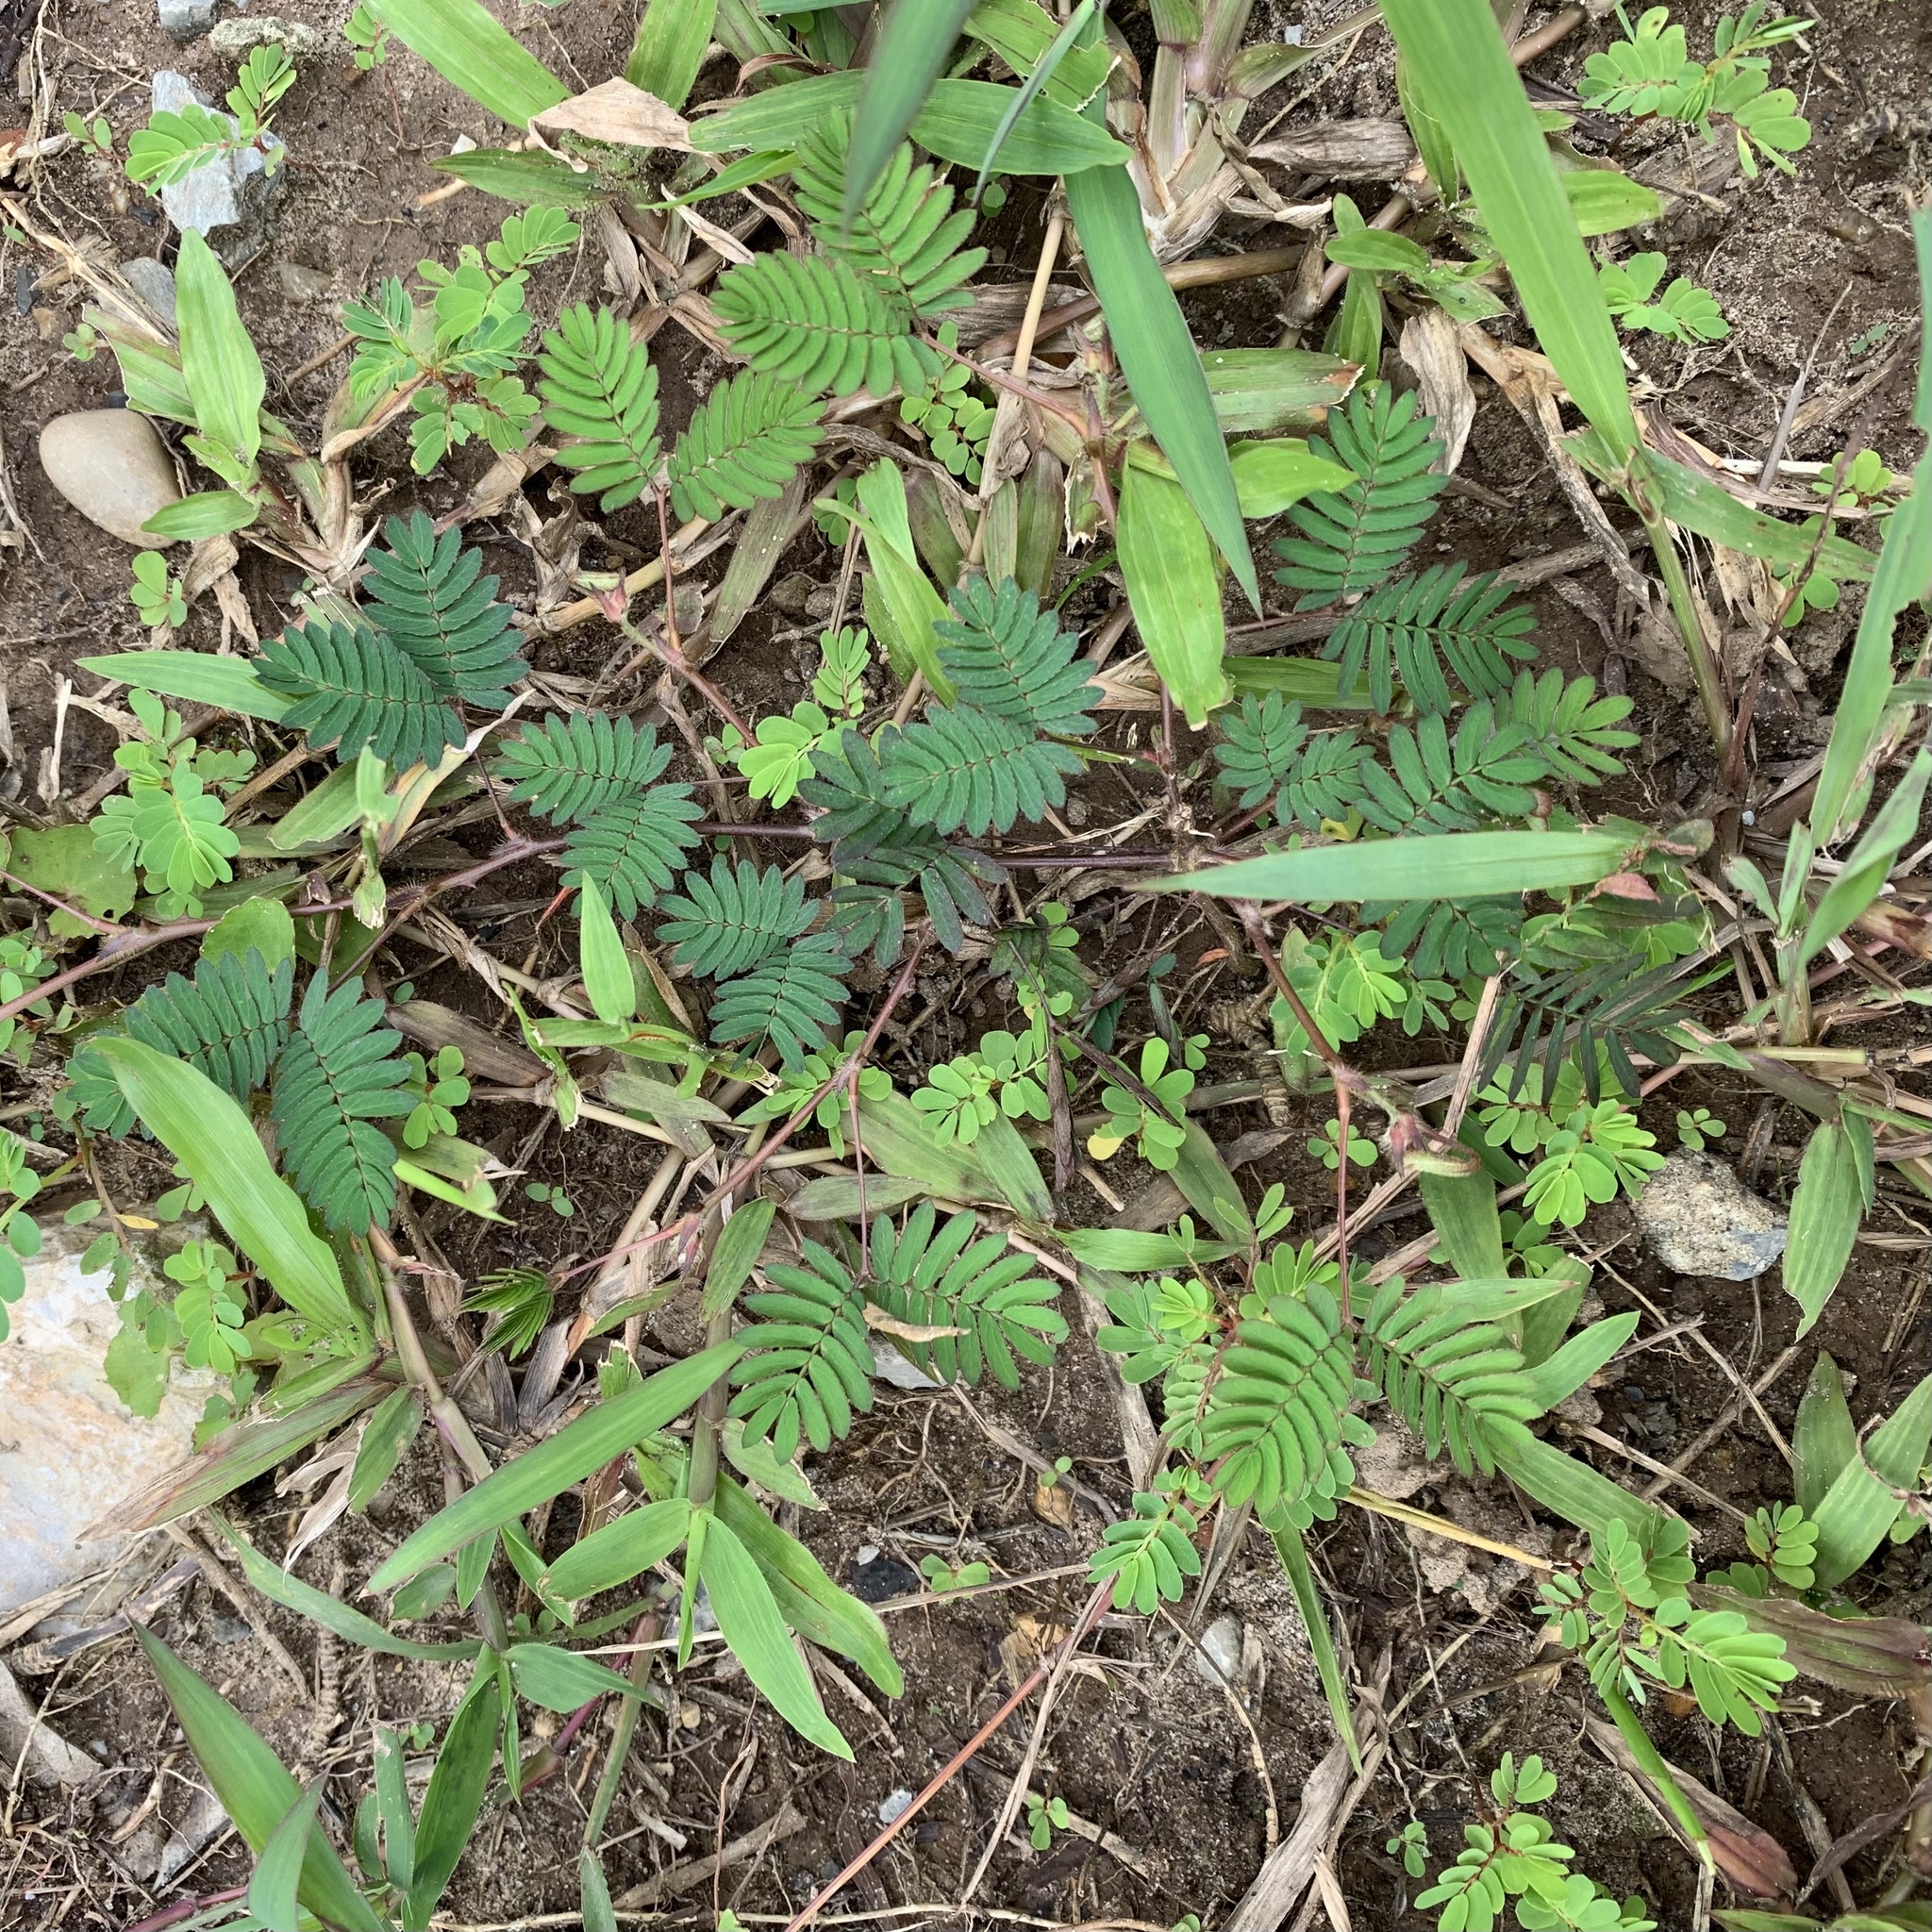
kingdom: Plantae
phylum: Tracheophyta
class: Magnoliopsida
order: Fabales
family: Fabaceae
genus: Mimosa
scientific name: Mimosa pudica
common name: Sensitive plant
